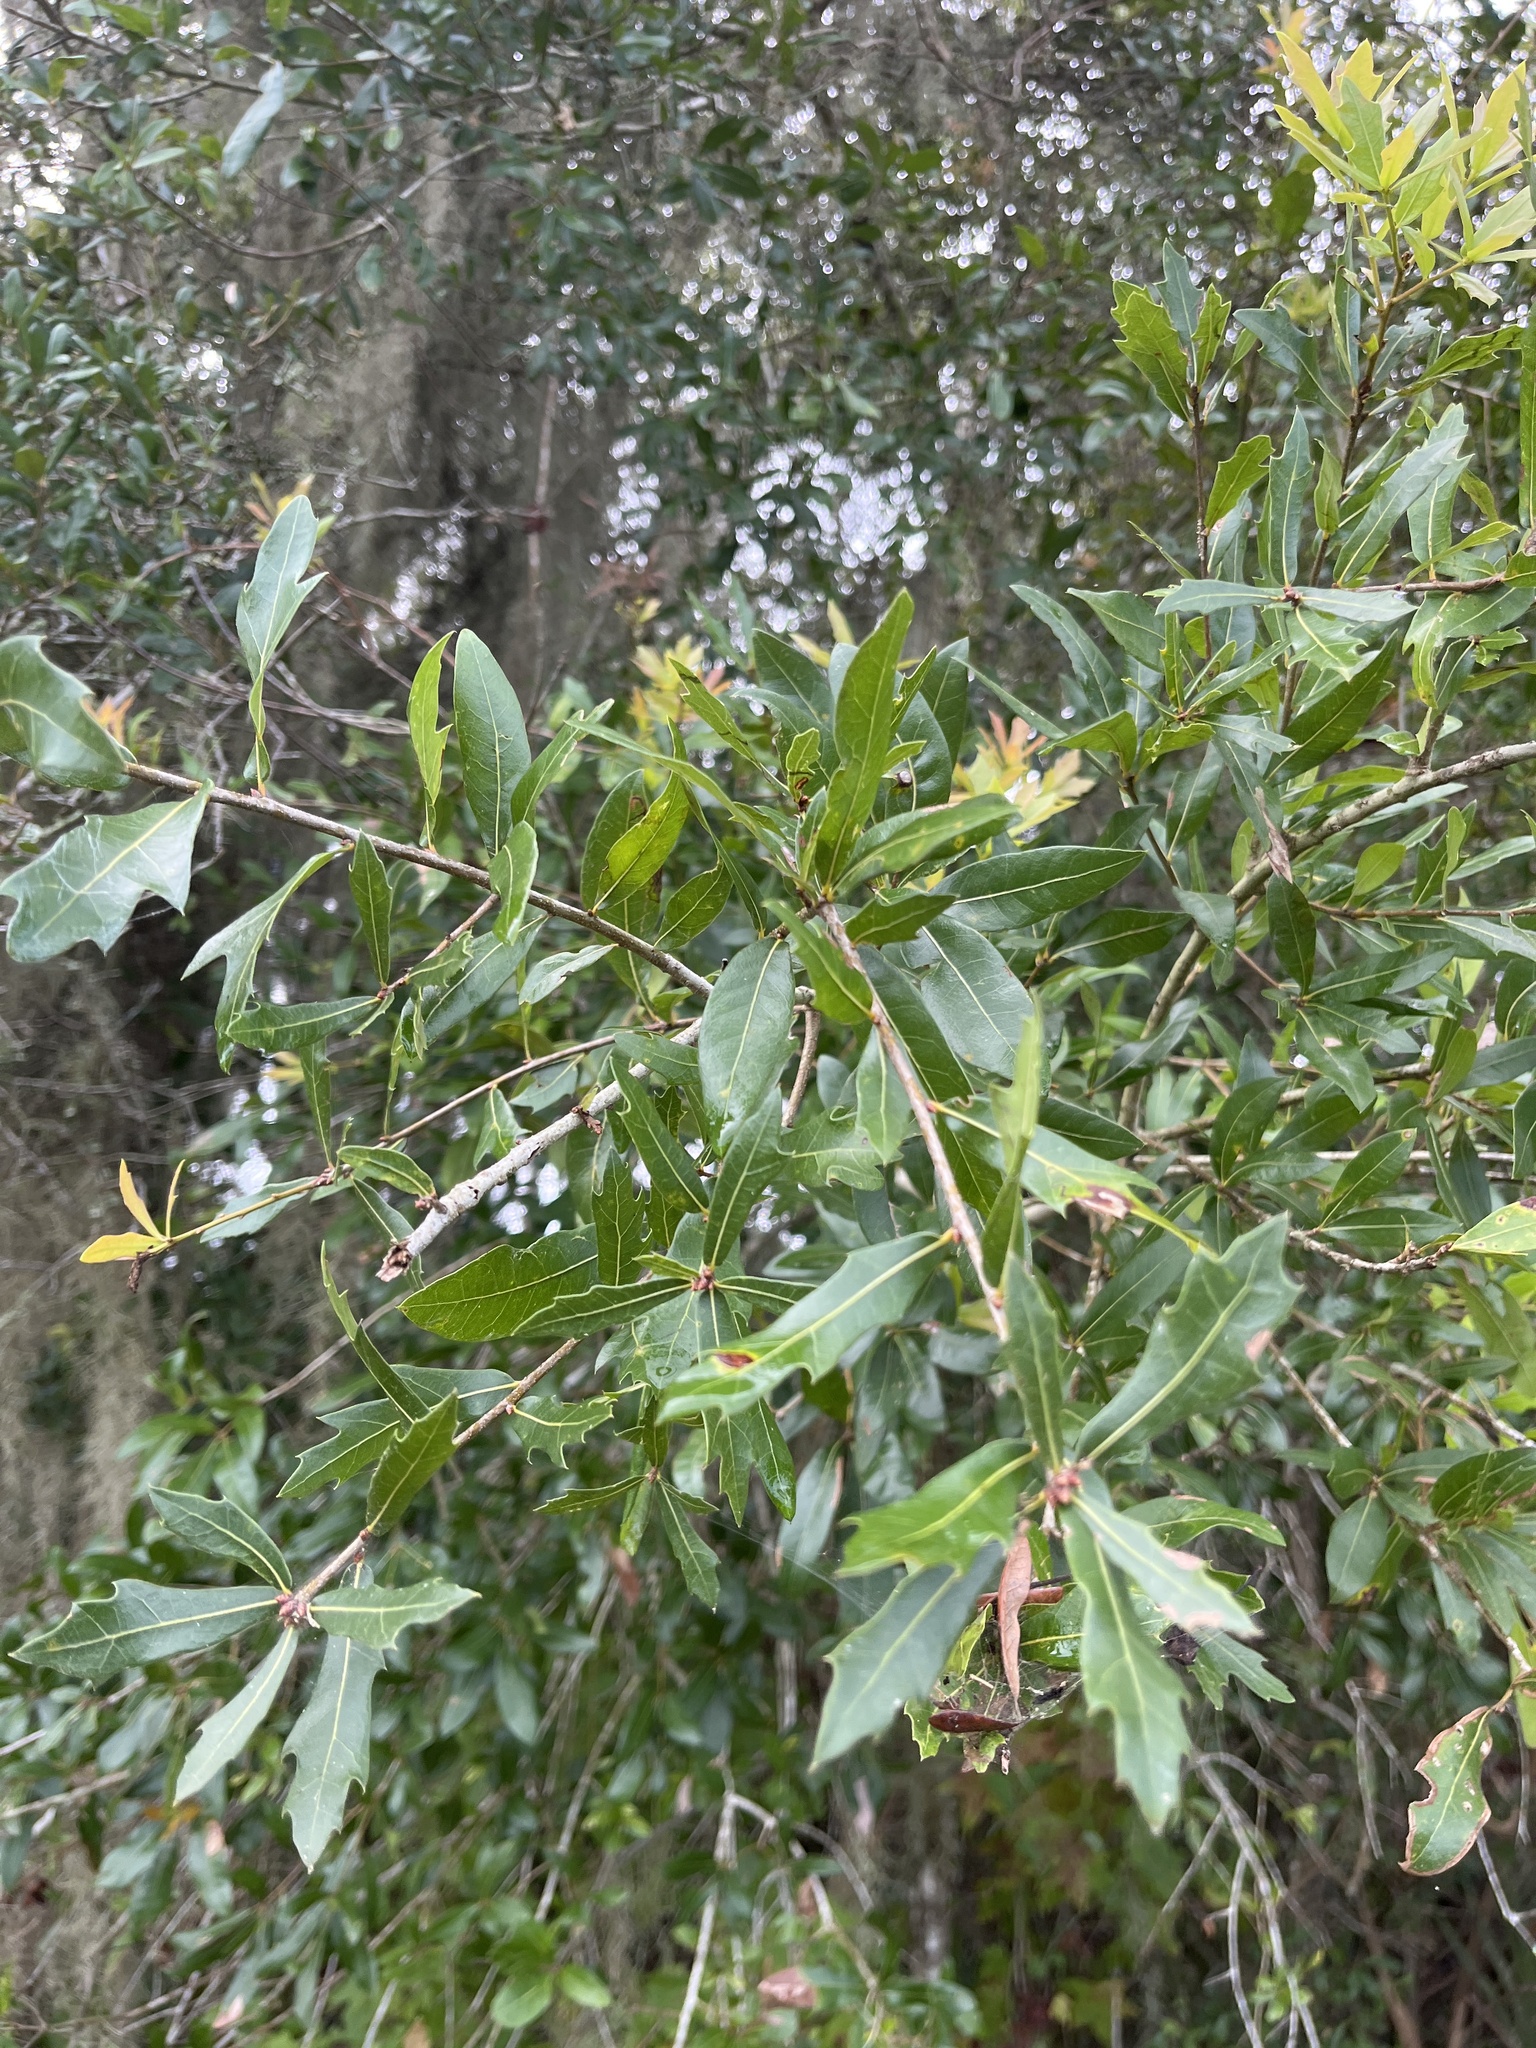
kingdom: Plantae
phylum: Tracheophyta
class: Magnoliopsida
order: Fagales
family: Fagaceae
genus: Quercus
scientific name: Quercus hemisphaerica
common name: Darlington oak
